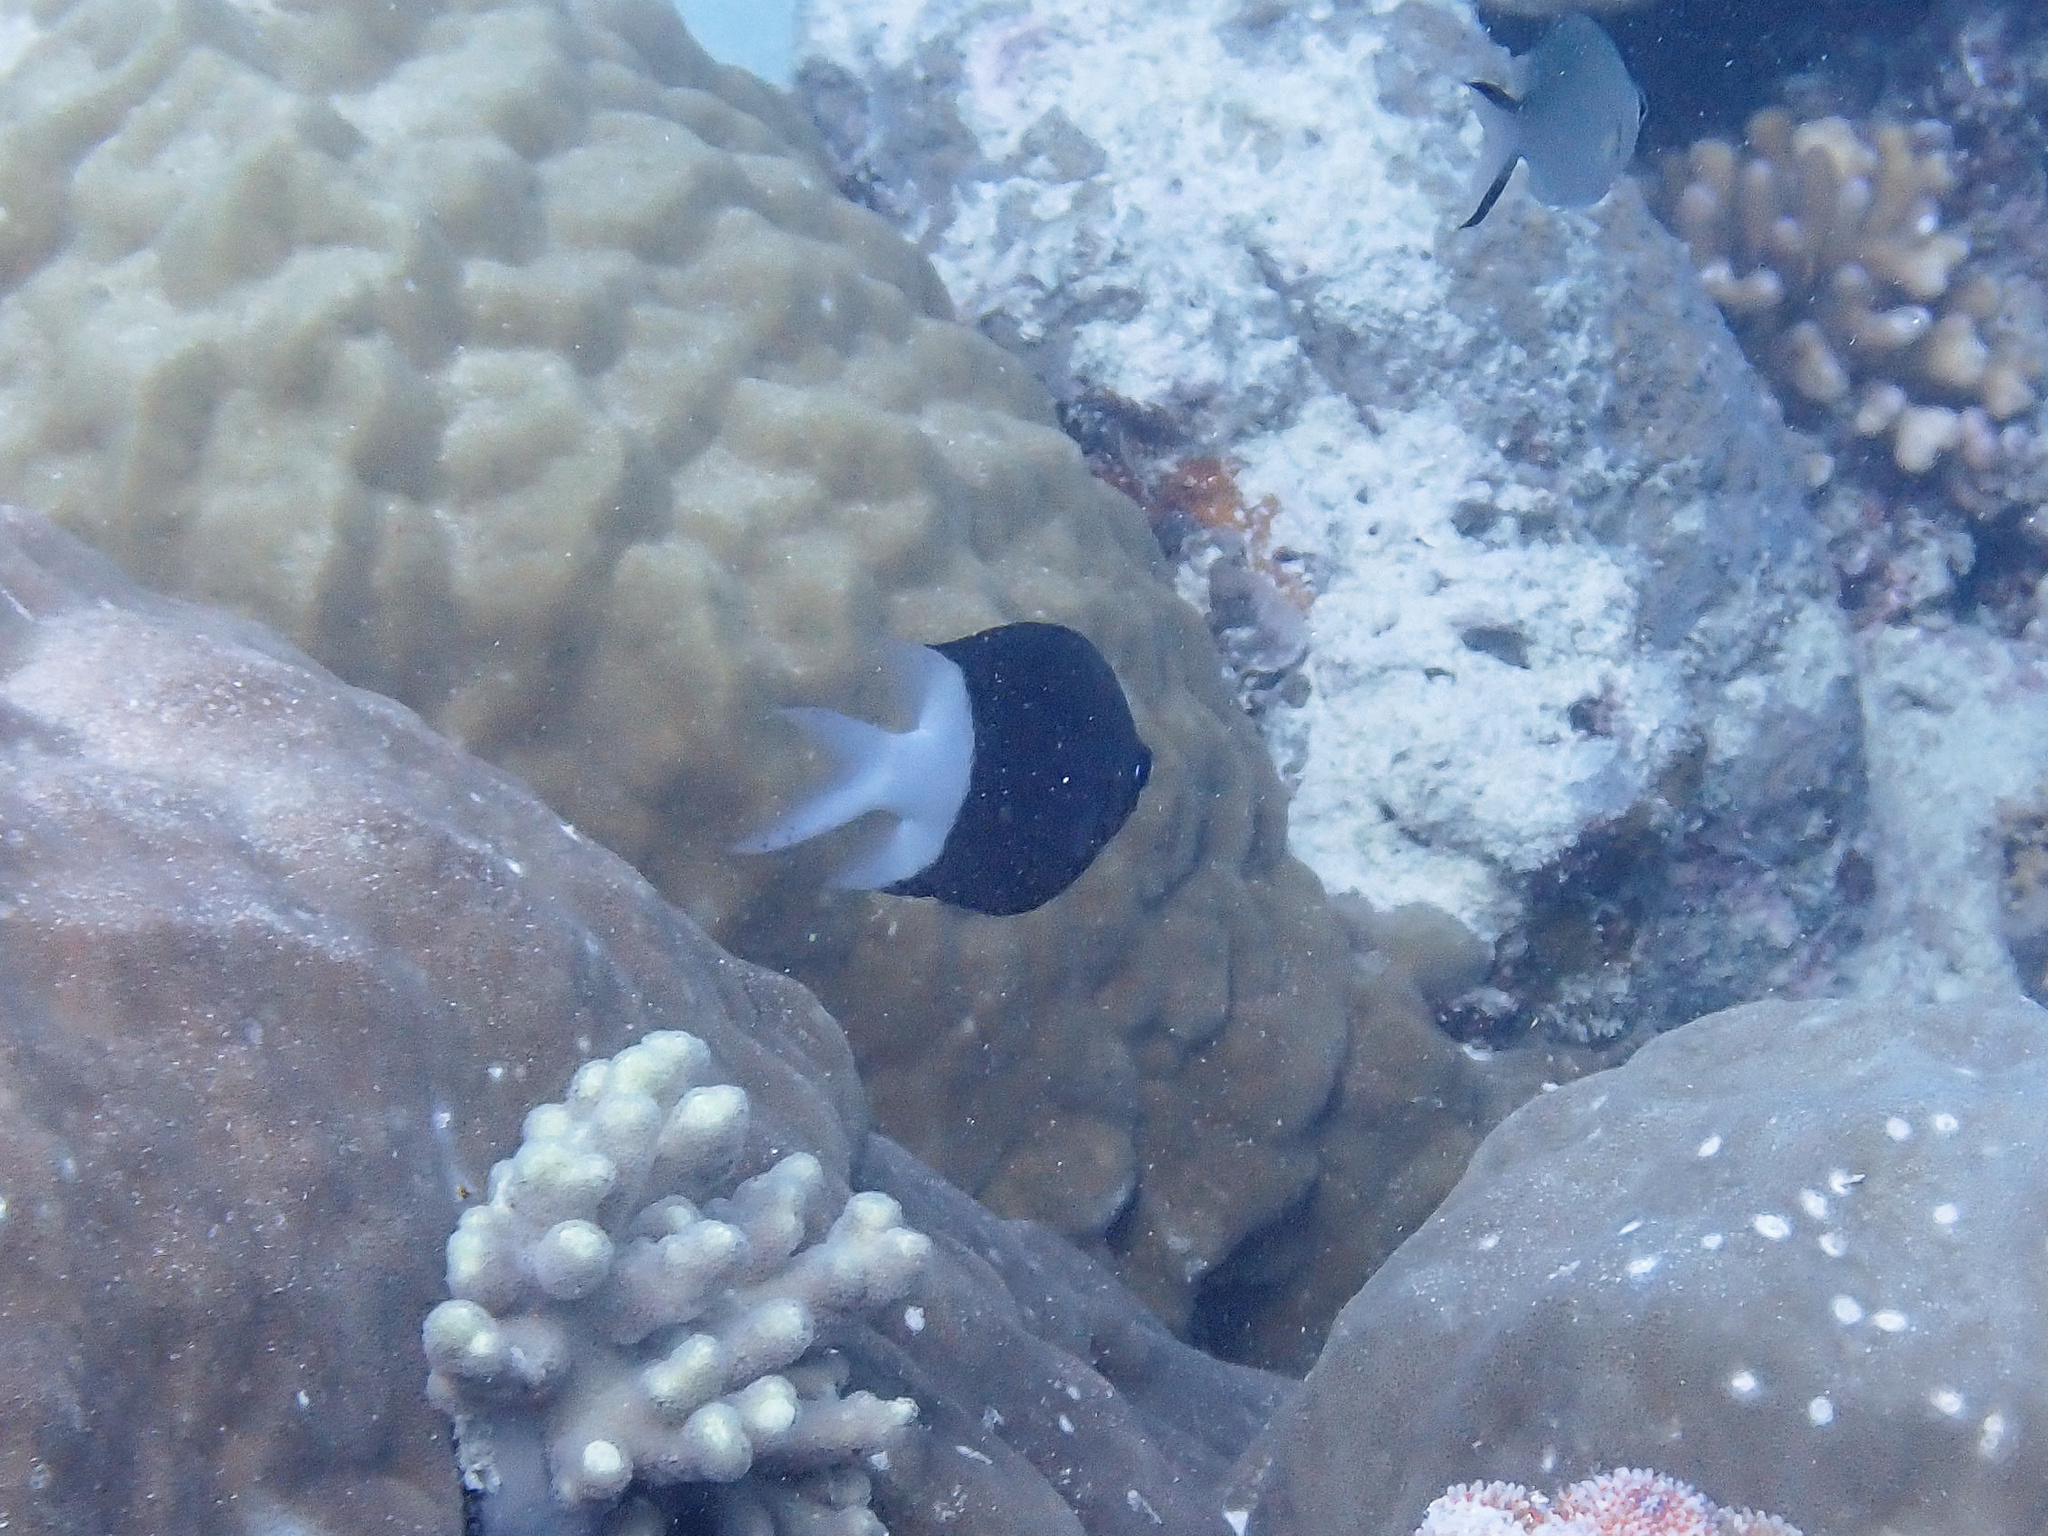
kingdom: Animalia
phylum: Chordata
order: Perciformes
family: Pomacentridae
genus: Acanthochromis
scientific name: Acanthochromis polyacanthus
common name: Spiny chromis
